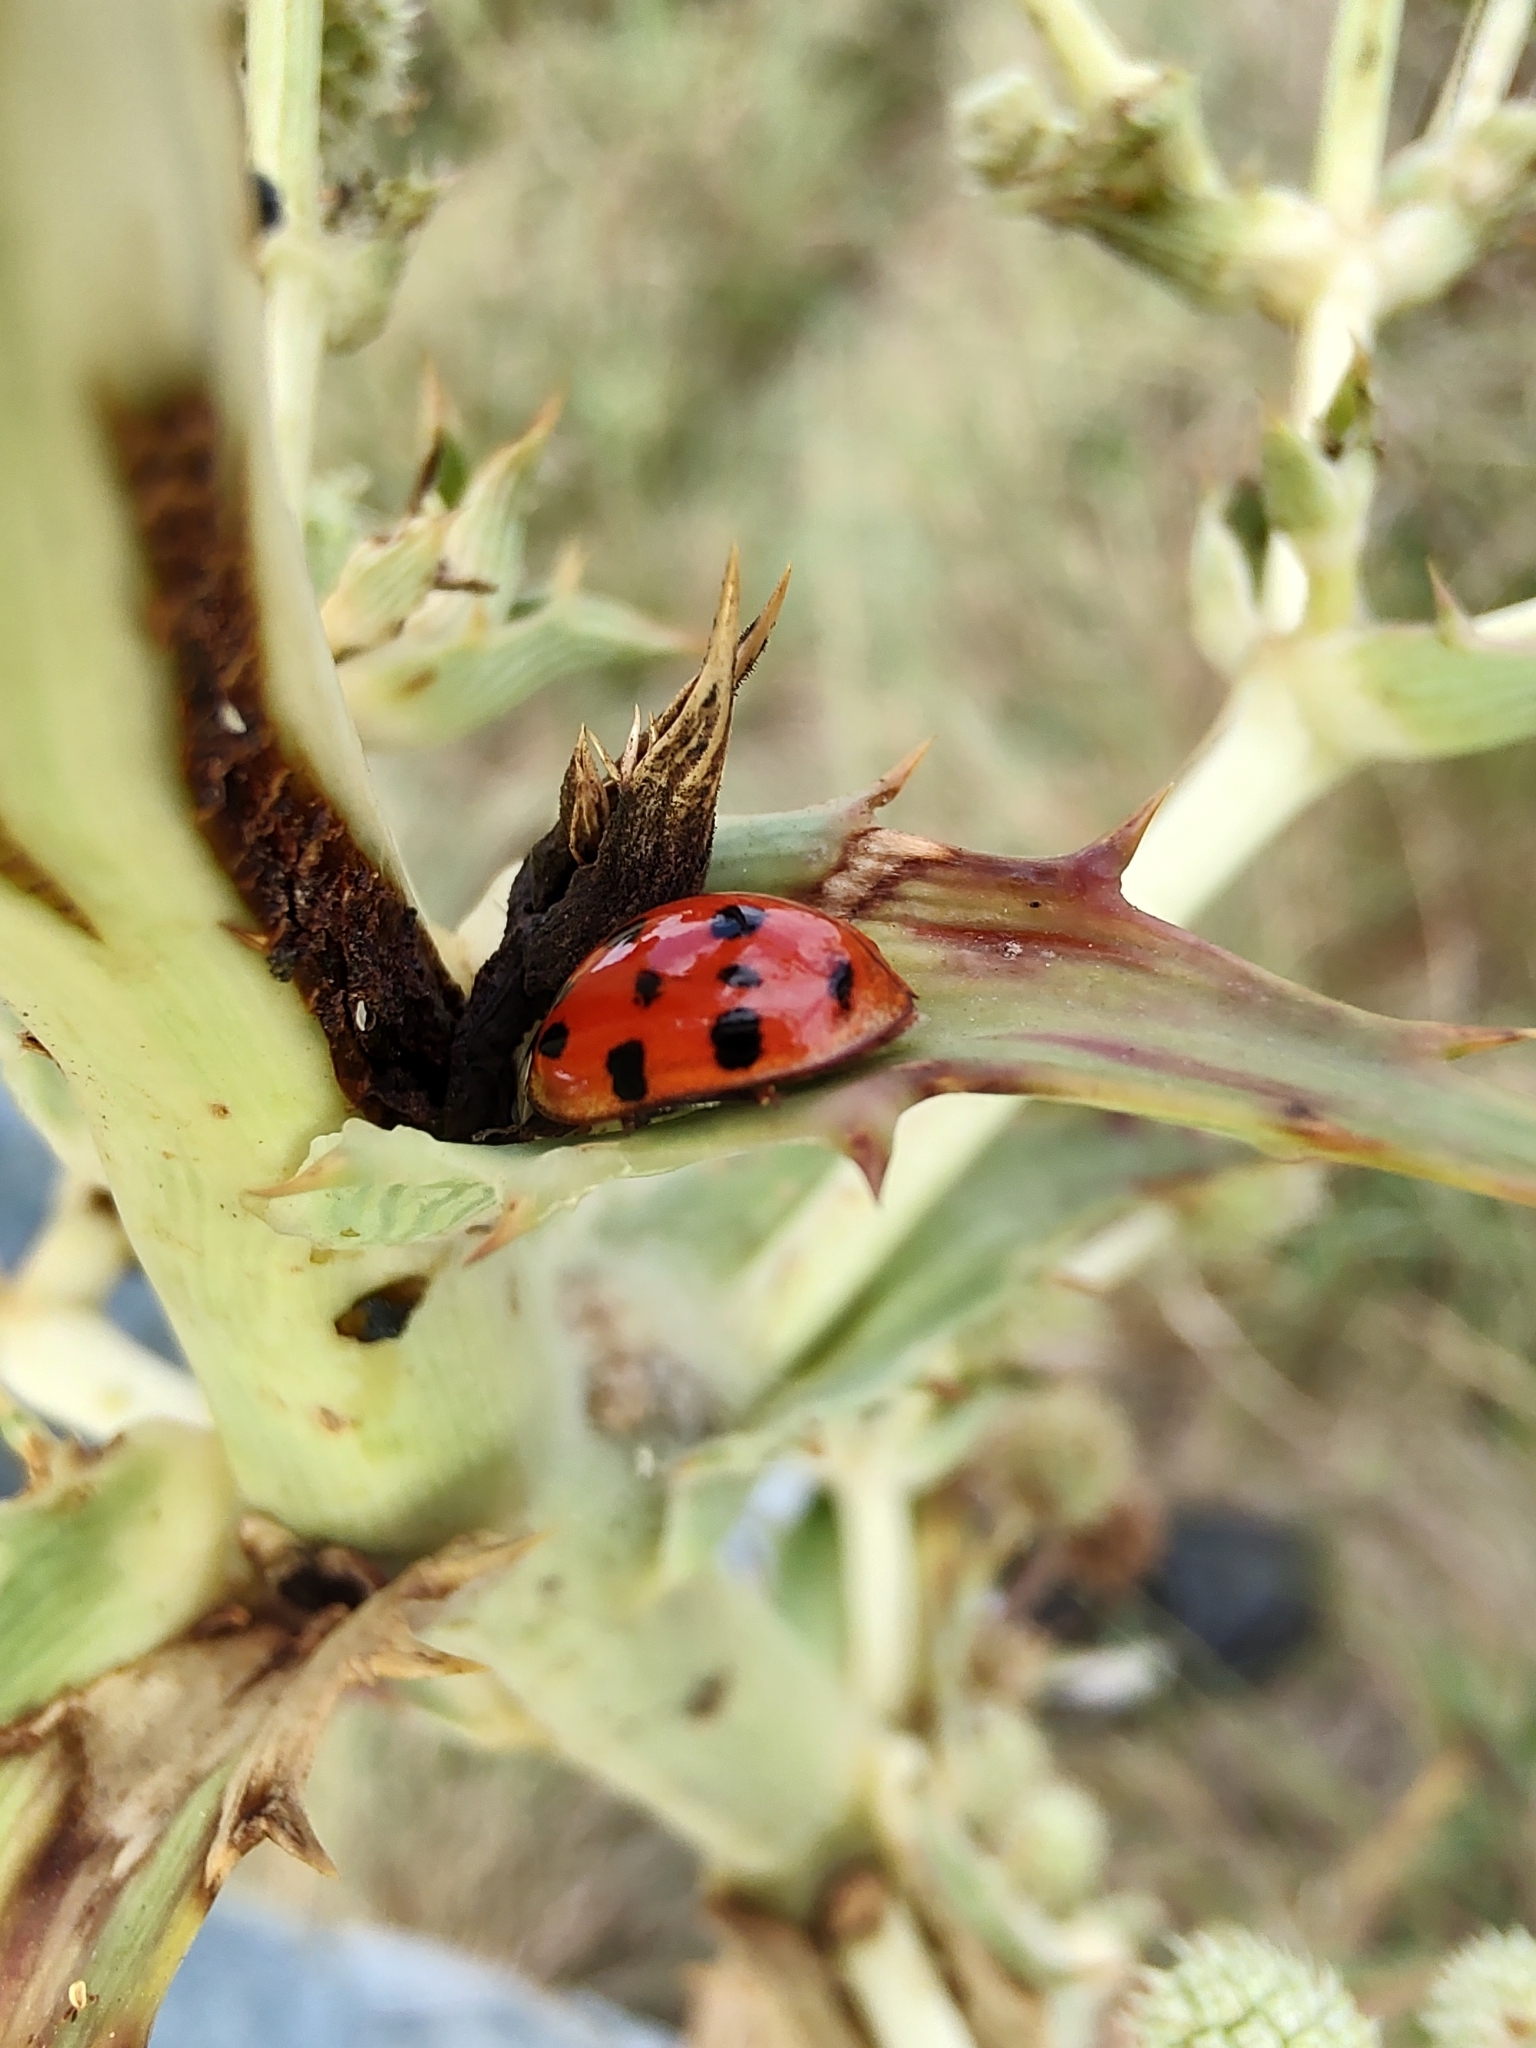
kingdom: Animalia
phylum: Arthropoda
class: Insecta
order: Coleoptera
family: Coccinellidae
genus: Harmonia
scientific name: Harmonia axyridis
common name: Harlequin ladybird
